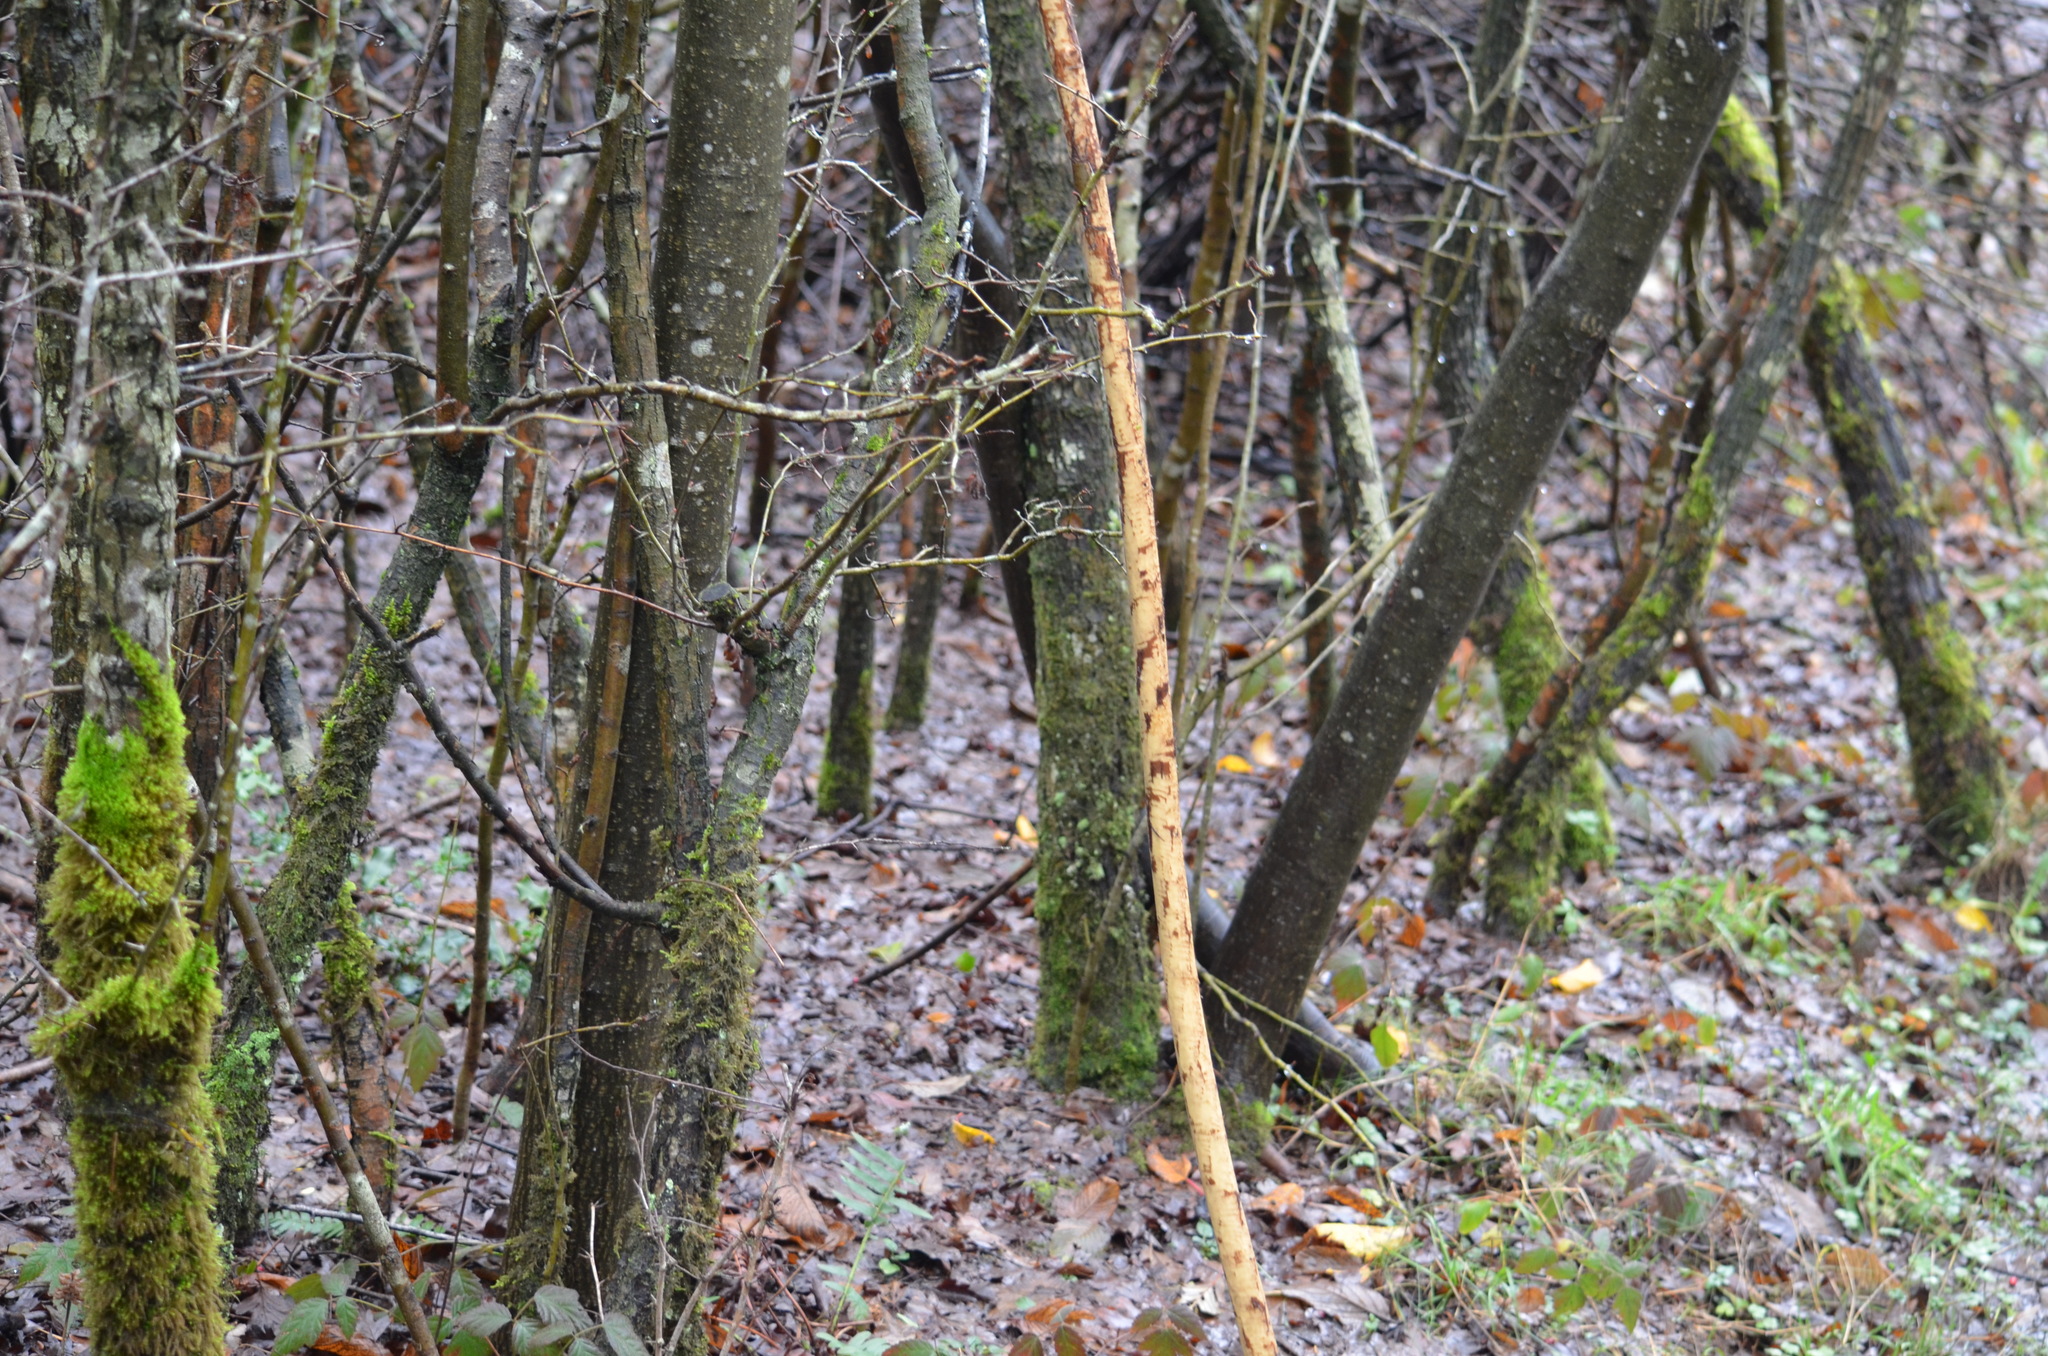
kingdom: Animalia
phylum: Chordata
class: Mammalia
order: Rodentia
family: Castoridae
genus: Castor
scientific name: Castor canadensis
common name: American beaver
